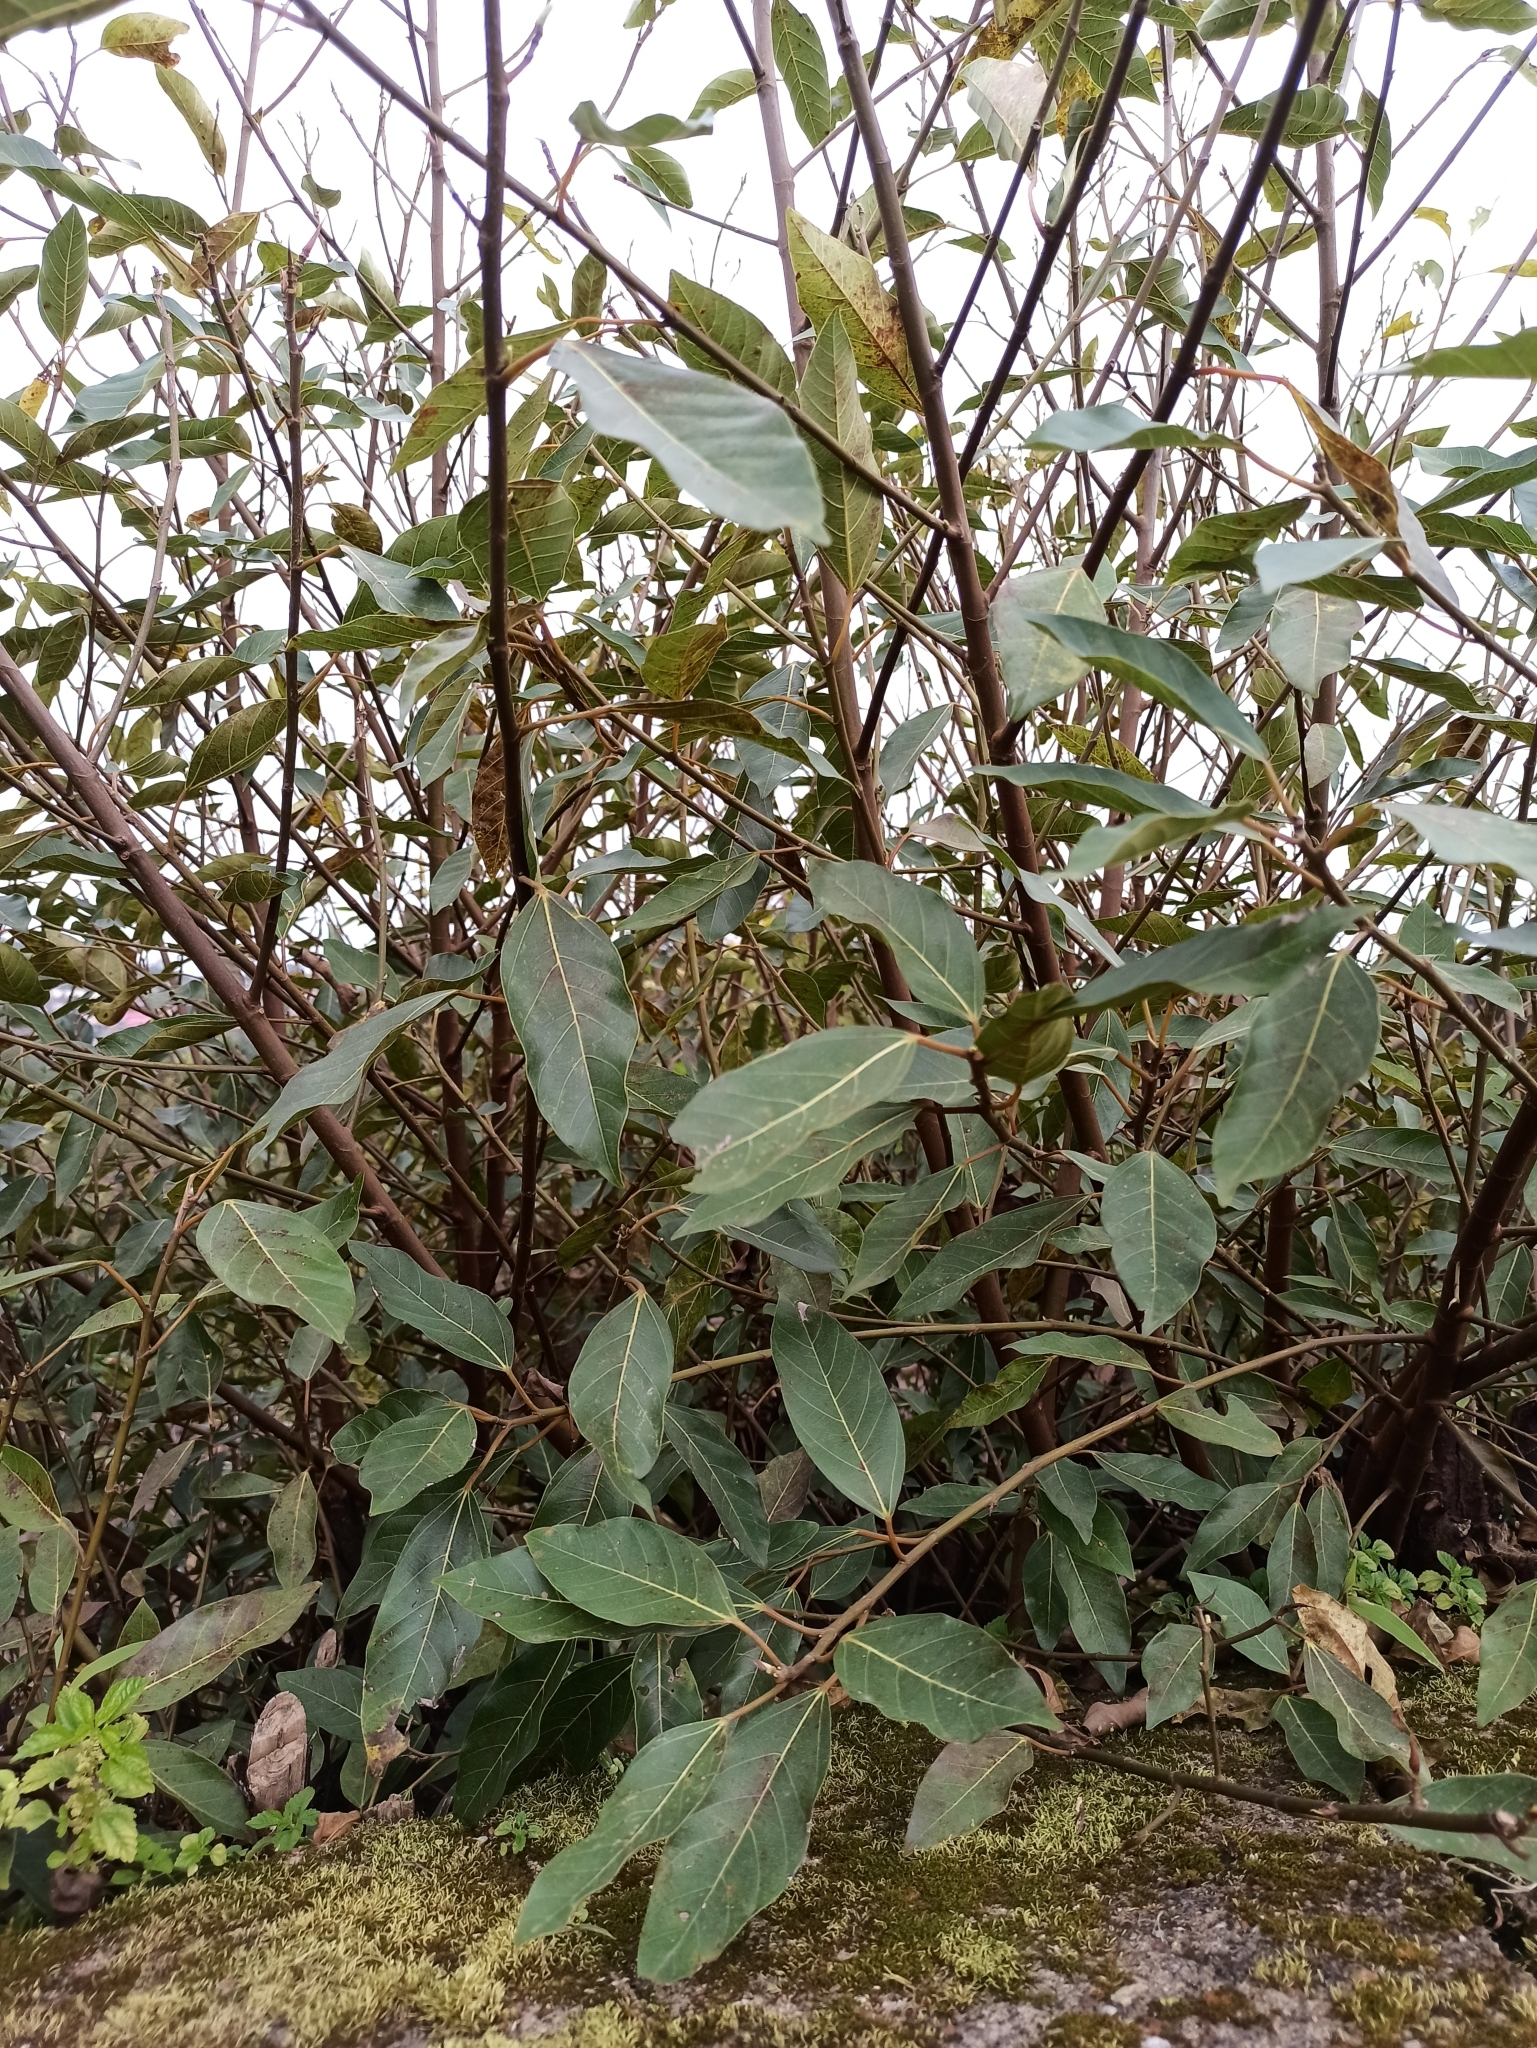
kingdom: Plantae
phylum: Tracheophyta
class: Magnoliopsida
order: Rosales
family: Moraceae
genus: Ficus
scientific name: Ficus racemosa
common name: Cluster fig
